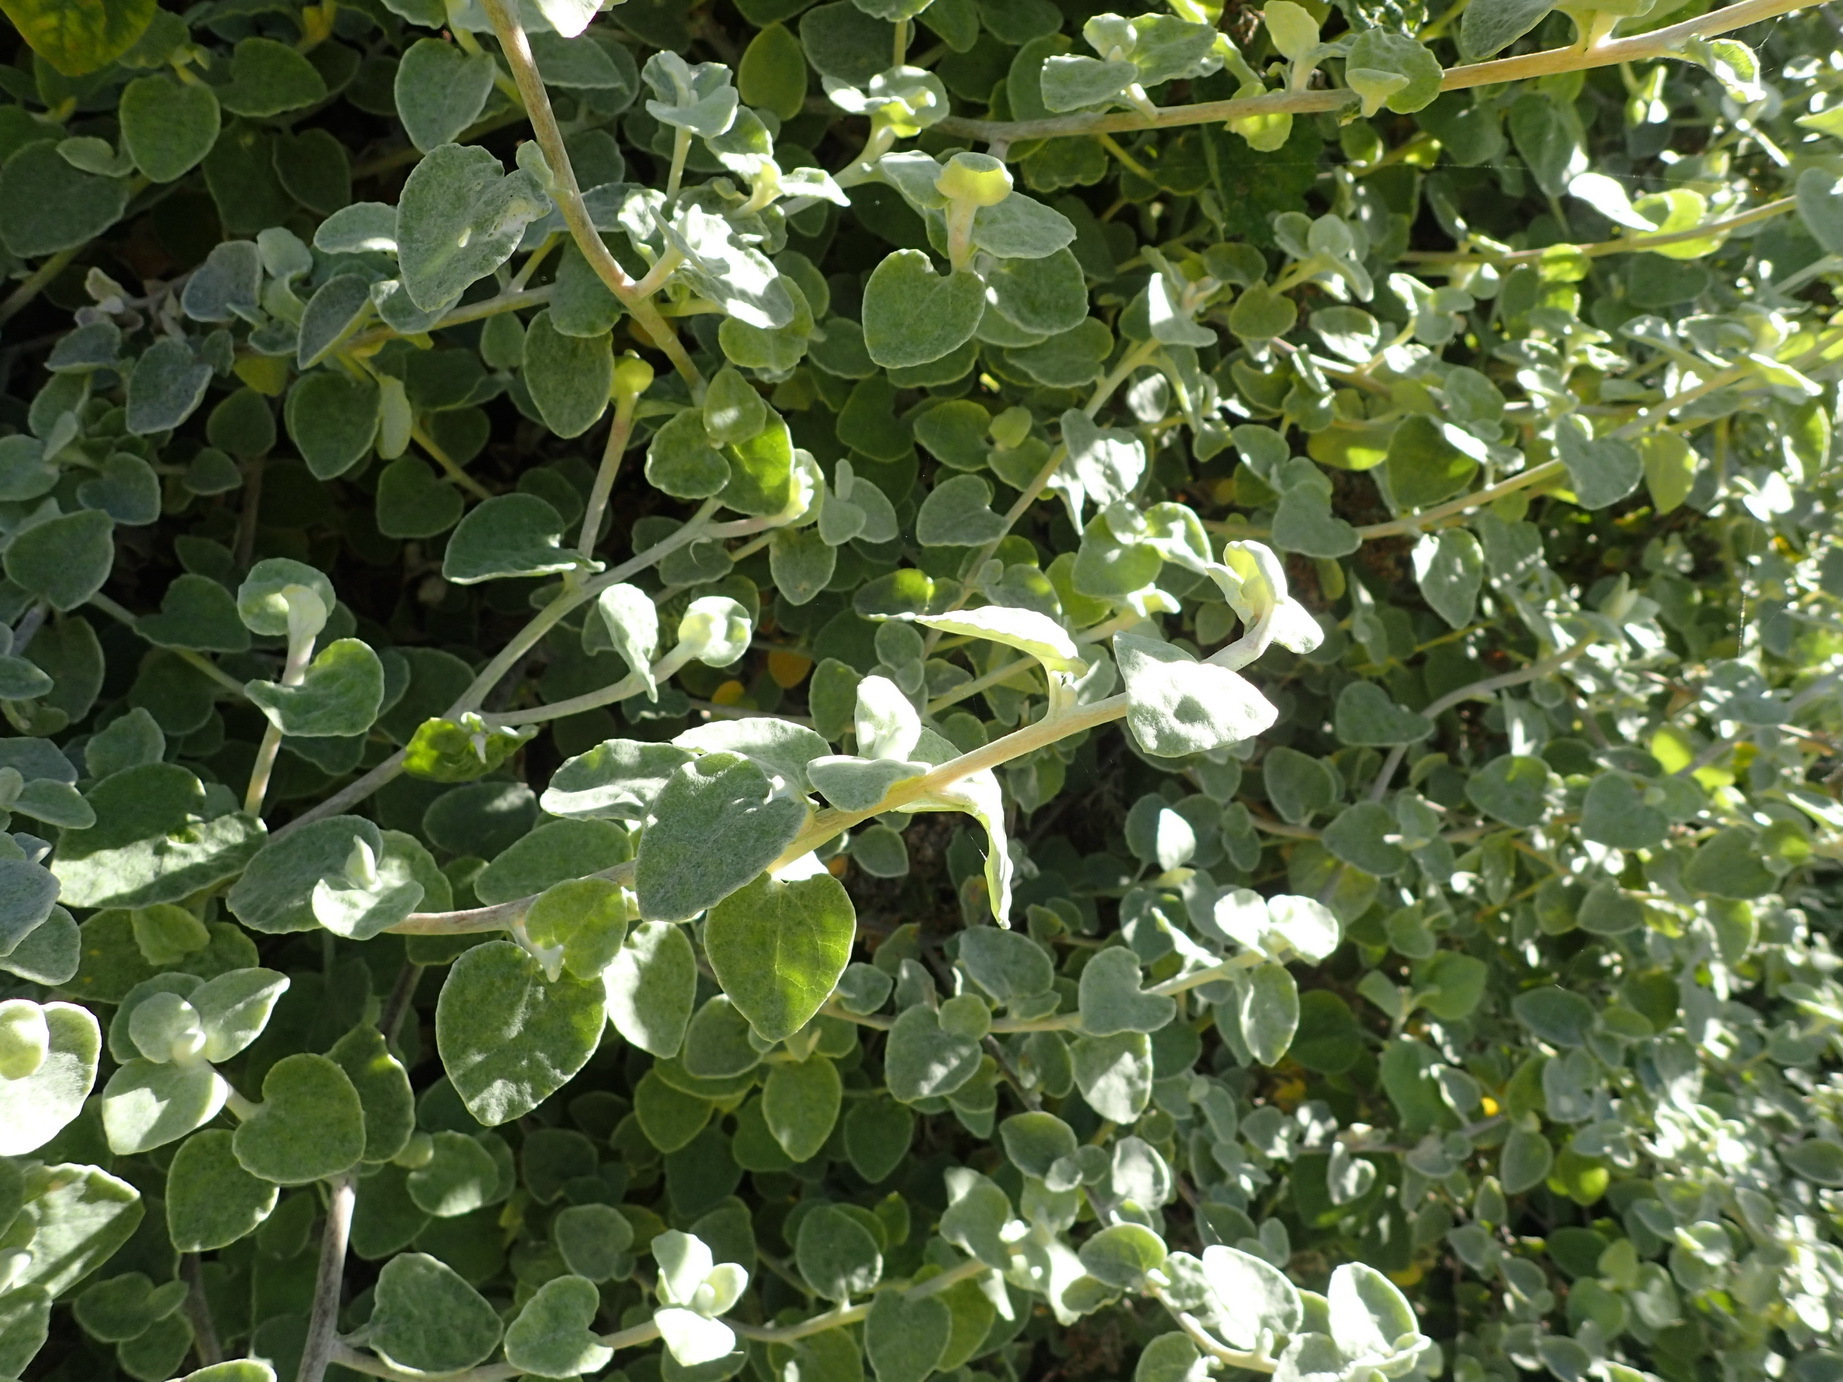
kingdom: Plantae
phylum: Tracheophyta
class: Magnoliopsida
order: Asterales
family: Asteraceae
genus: Helichrysum
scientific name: Helichrysum petiolare
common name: Licorice-plant
